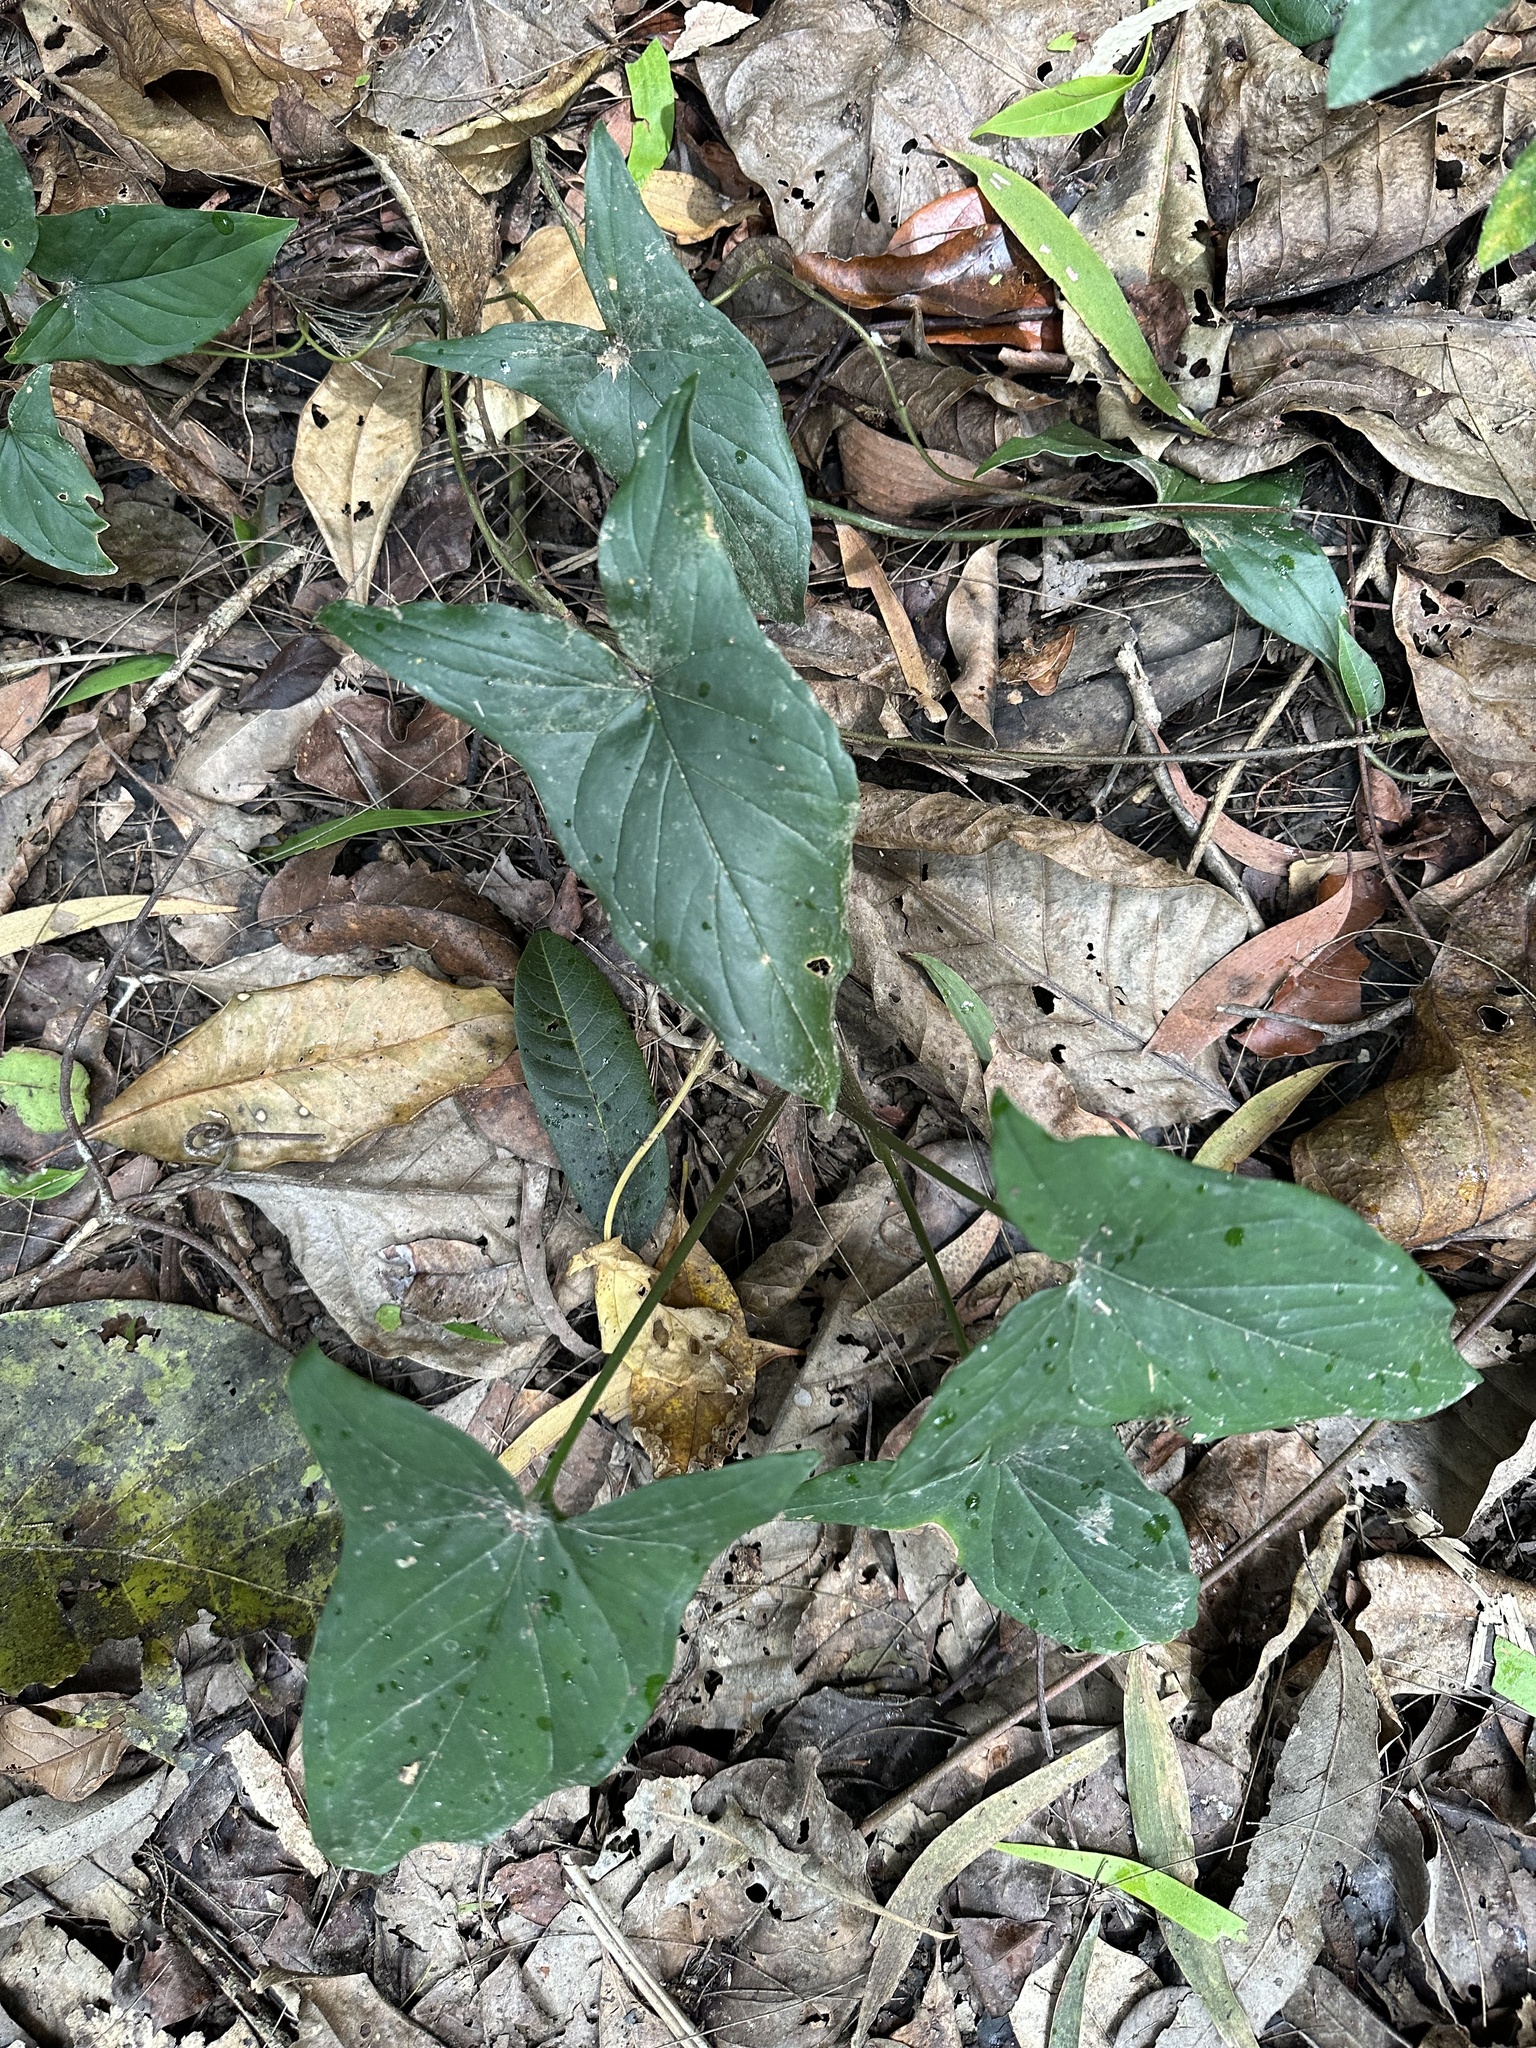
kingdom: Plantae
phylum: Tracheophyta
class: Liliopsida
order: Alismatales
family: Araceae
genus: Syngonium
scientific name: Syngonium podophyllum
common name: American evergreen
